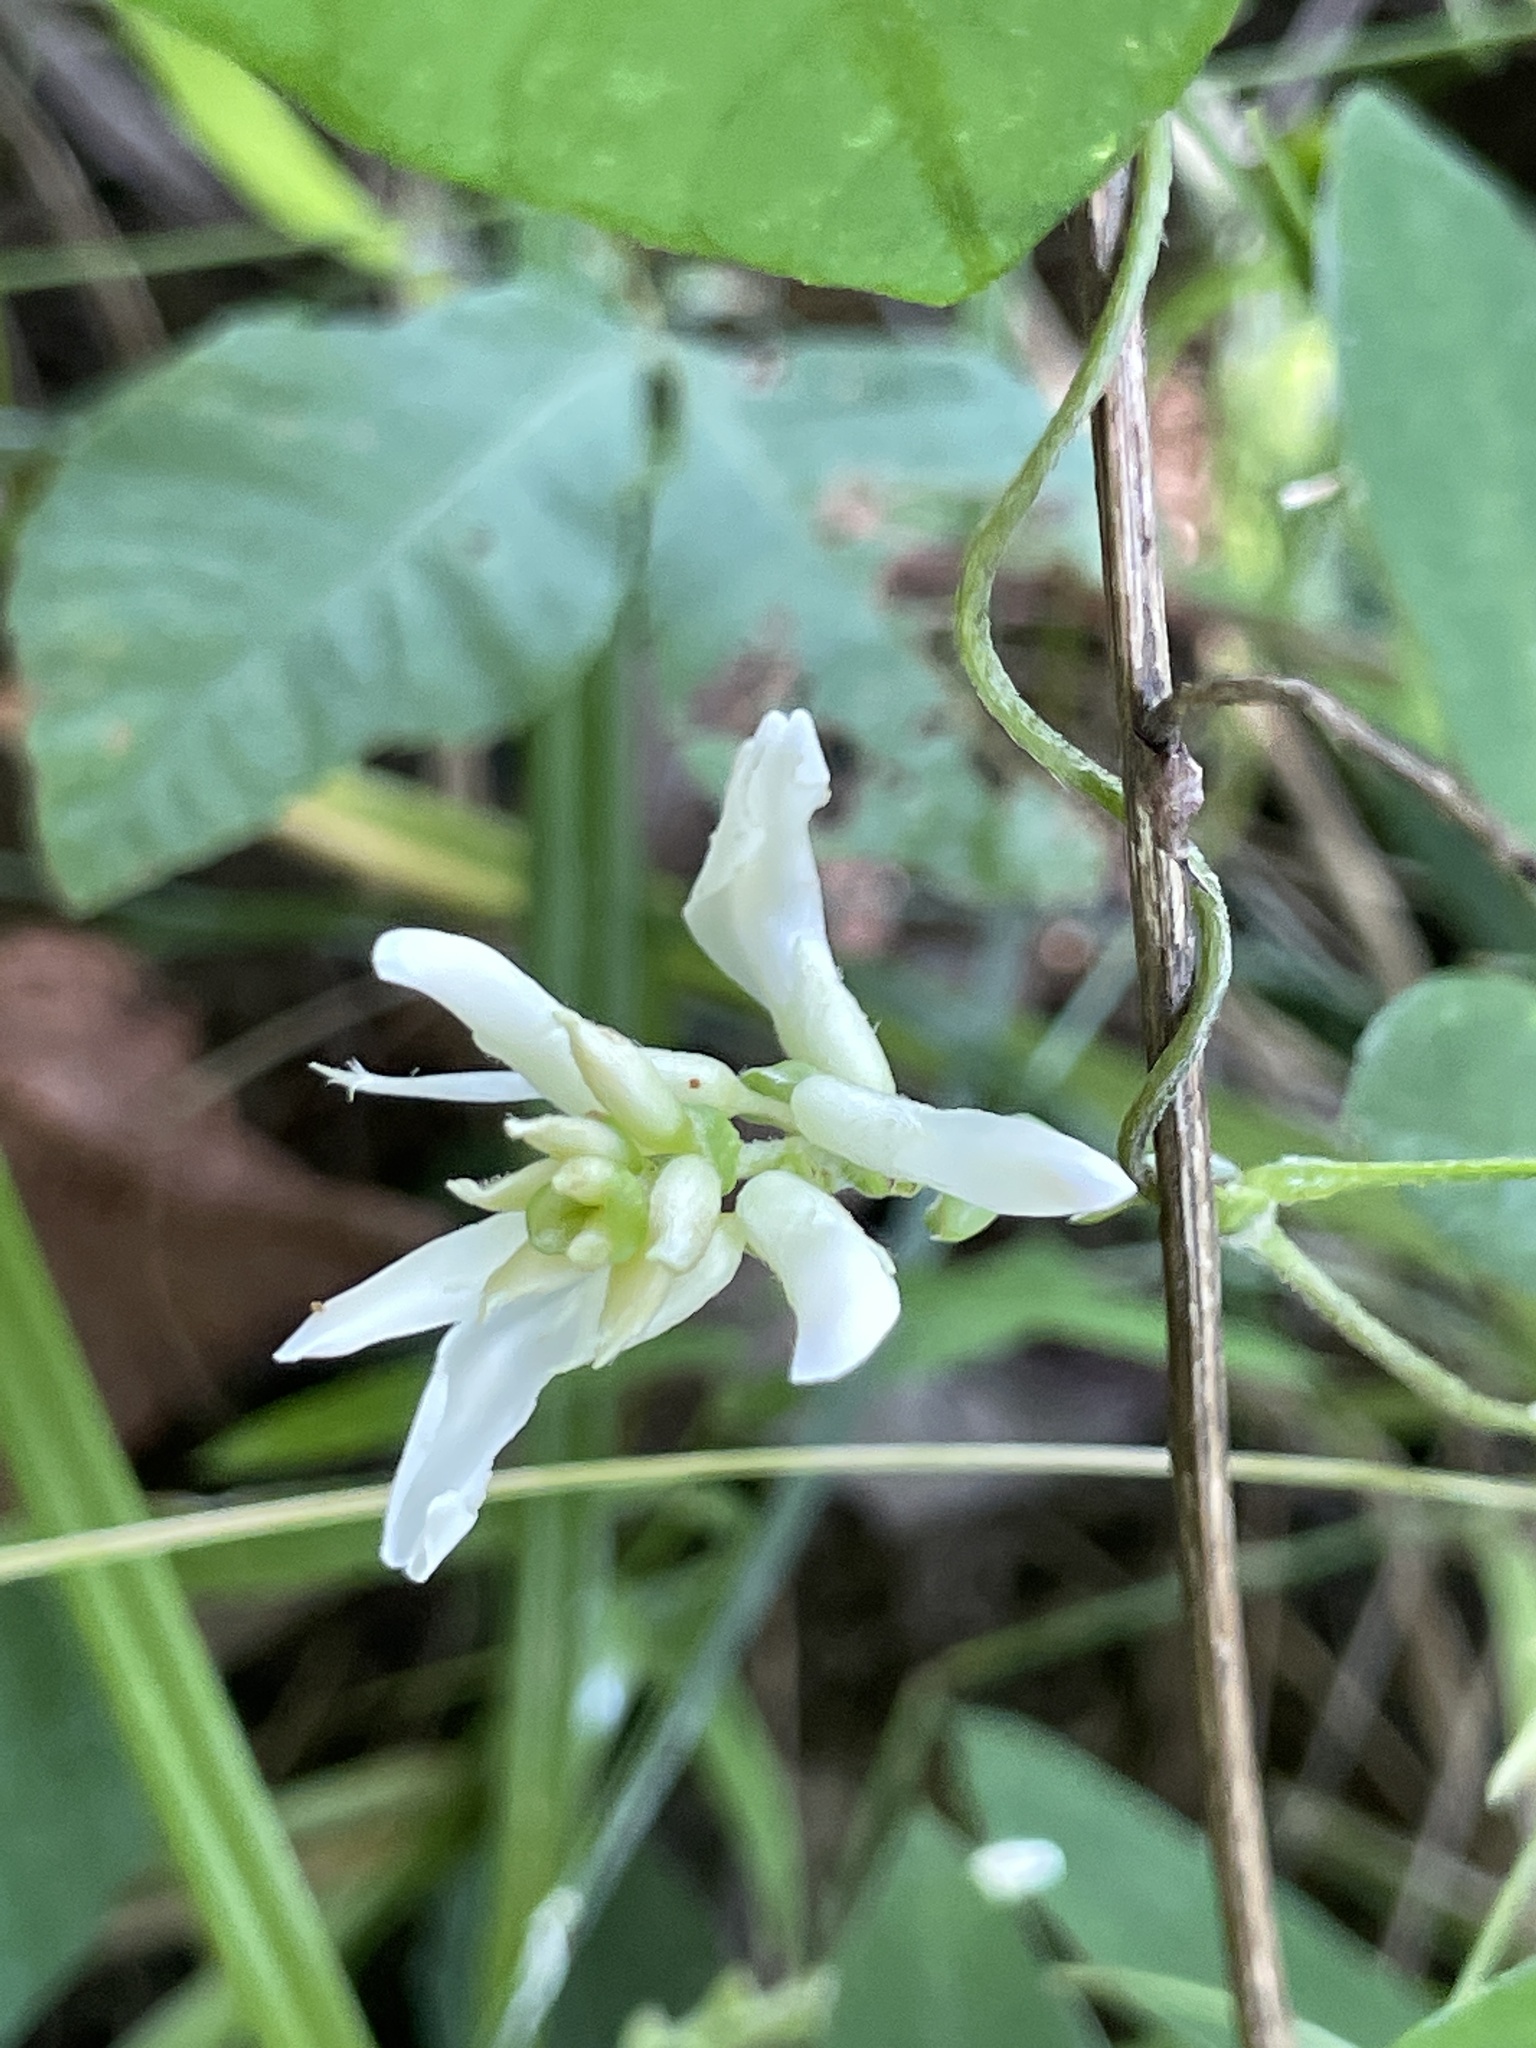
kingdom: Plantae
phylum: Tracheophyta
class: Magnoliopsida
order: Fabales
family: Fabaceae
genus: Amphicarpaea
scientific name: Amphicarpaea bracteata
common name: American hog peanut
